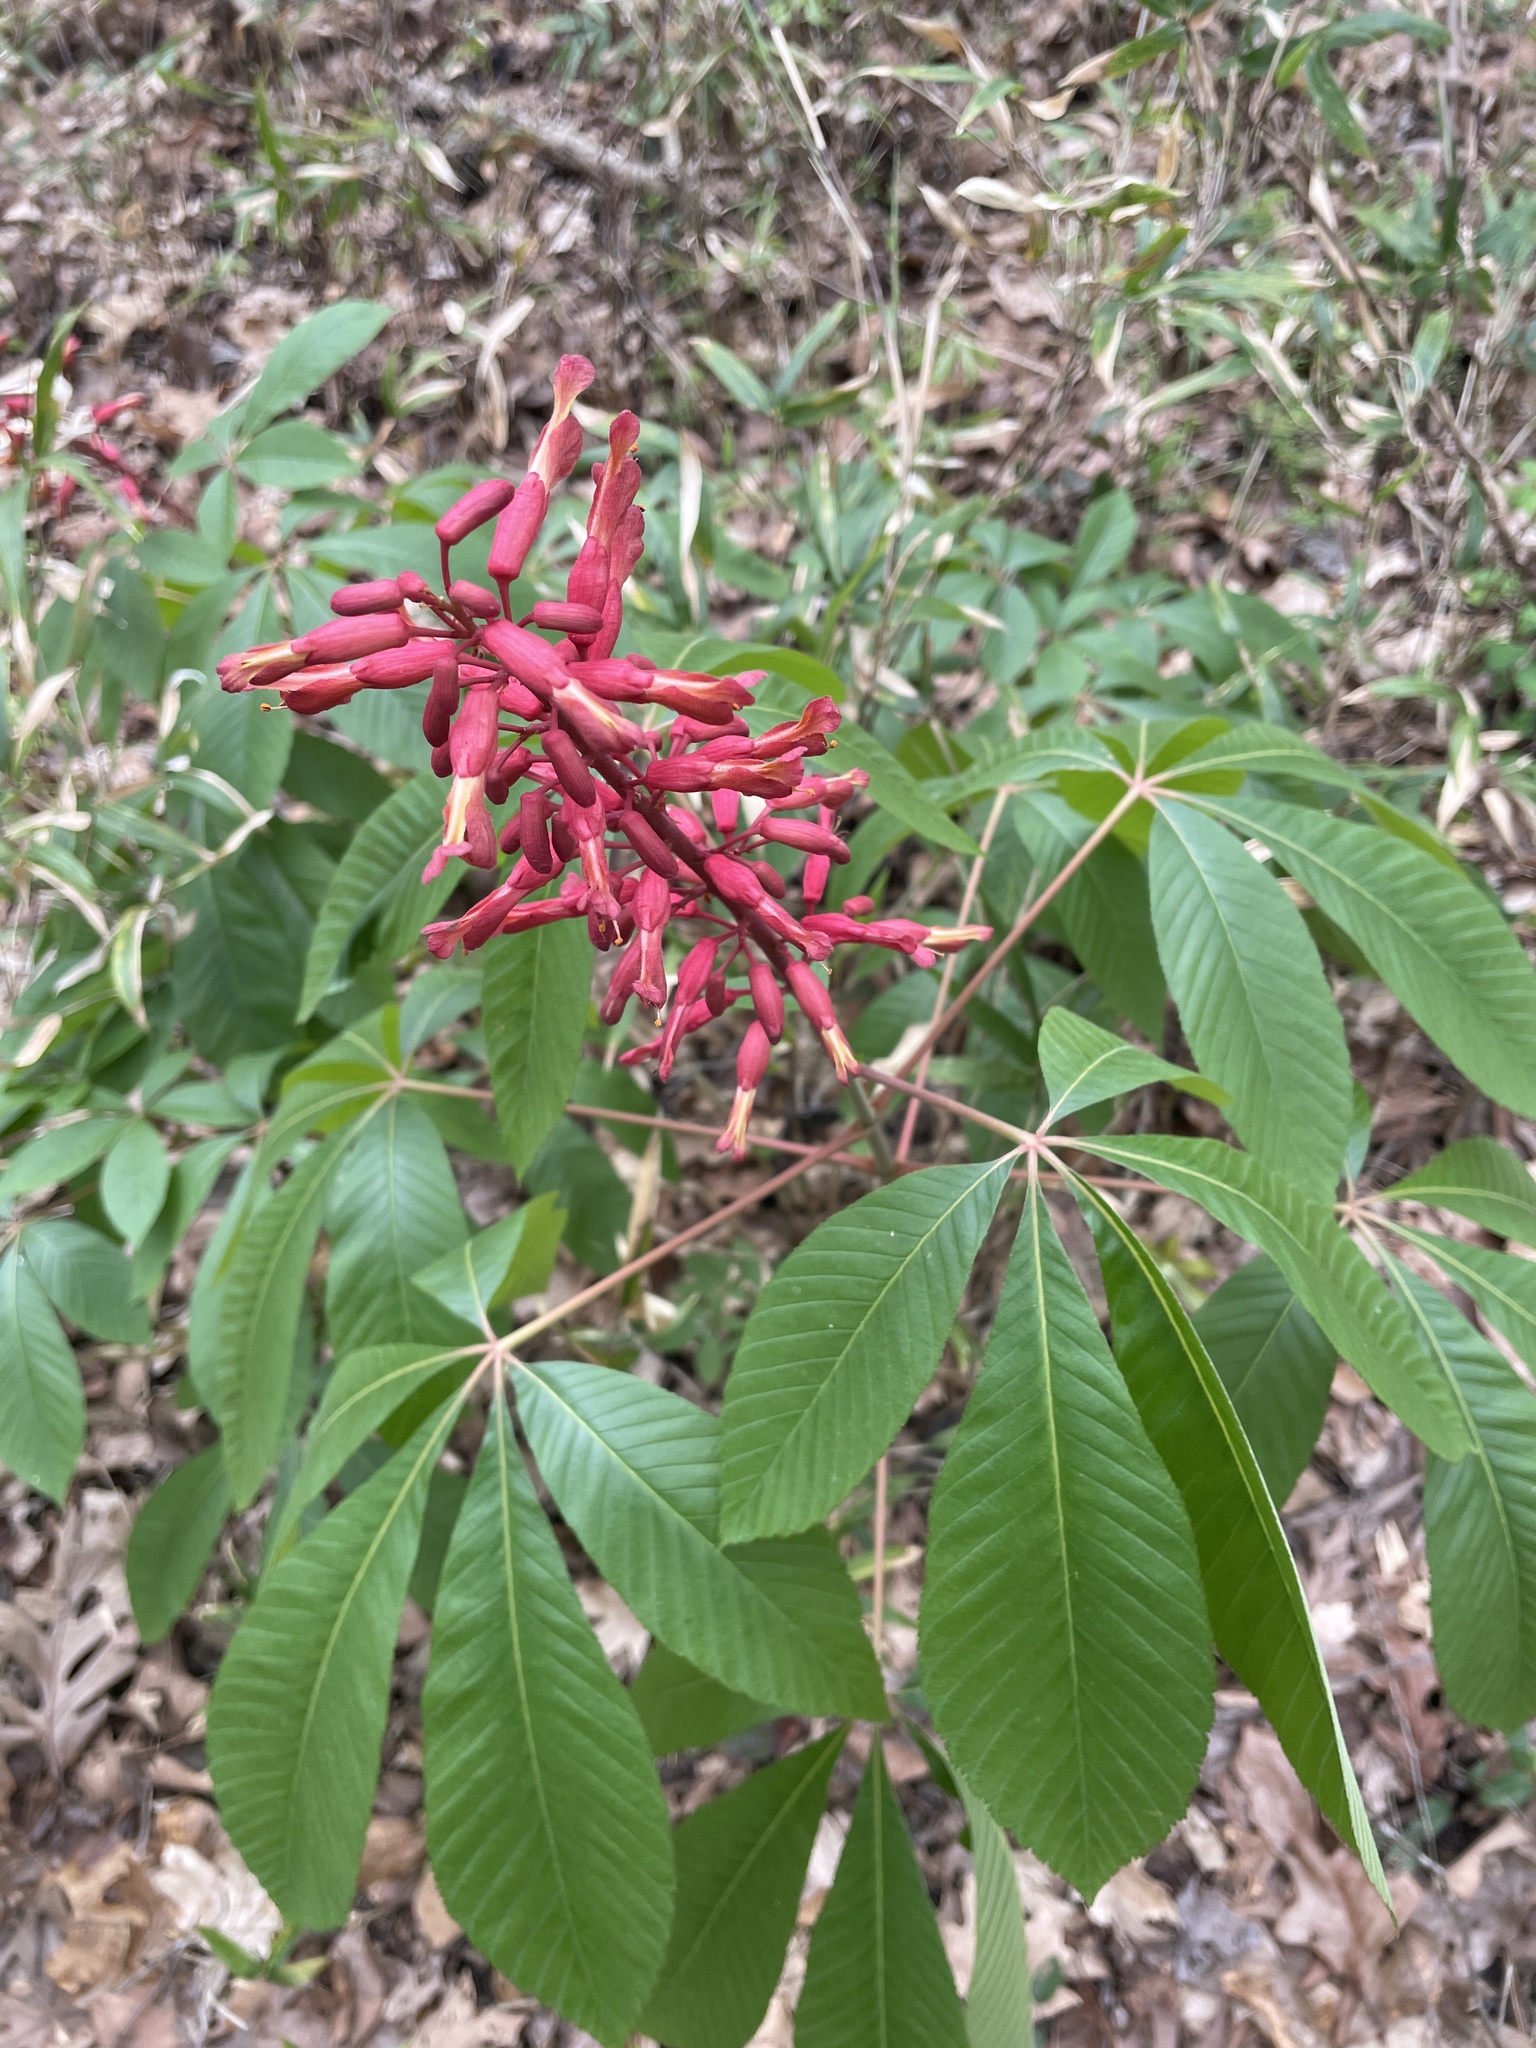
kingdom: Plantae
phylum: Tracheophyta
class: Magnoliopsida
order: Sapindales
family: Sapindaceae
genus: Aesculus
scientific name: Aesculus pavia
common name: Red buckeye
